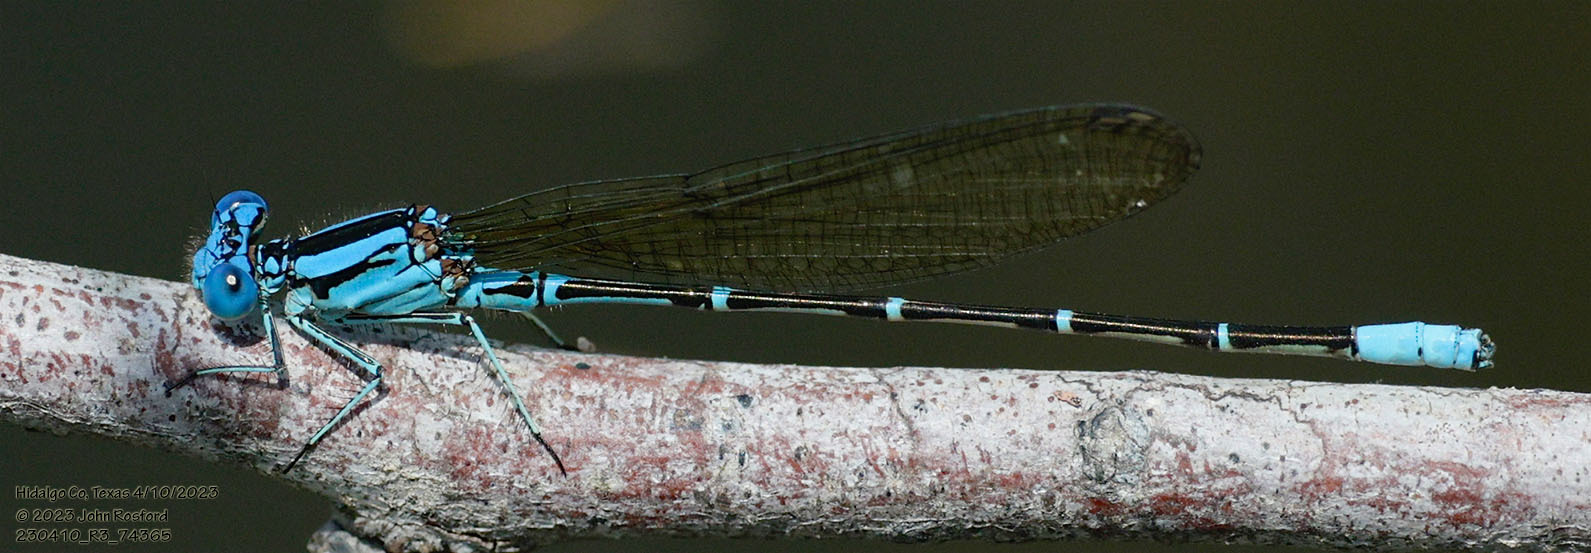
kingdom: Animalia
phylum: Arthropoda
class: Insecta
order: Odonata
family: Coenagrionidae
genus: Argia
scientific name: Argia rhoadsi
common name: Golden-winged dancer
